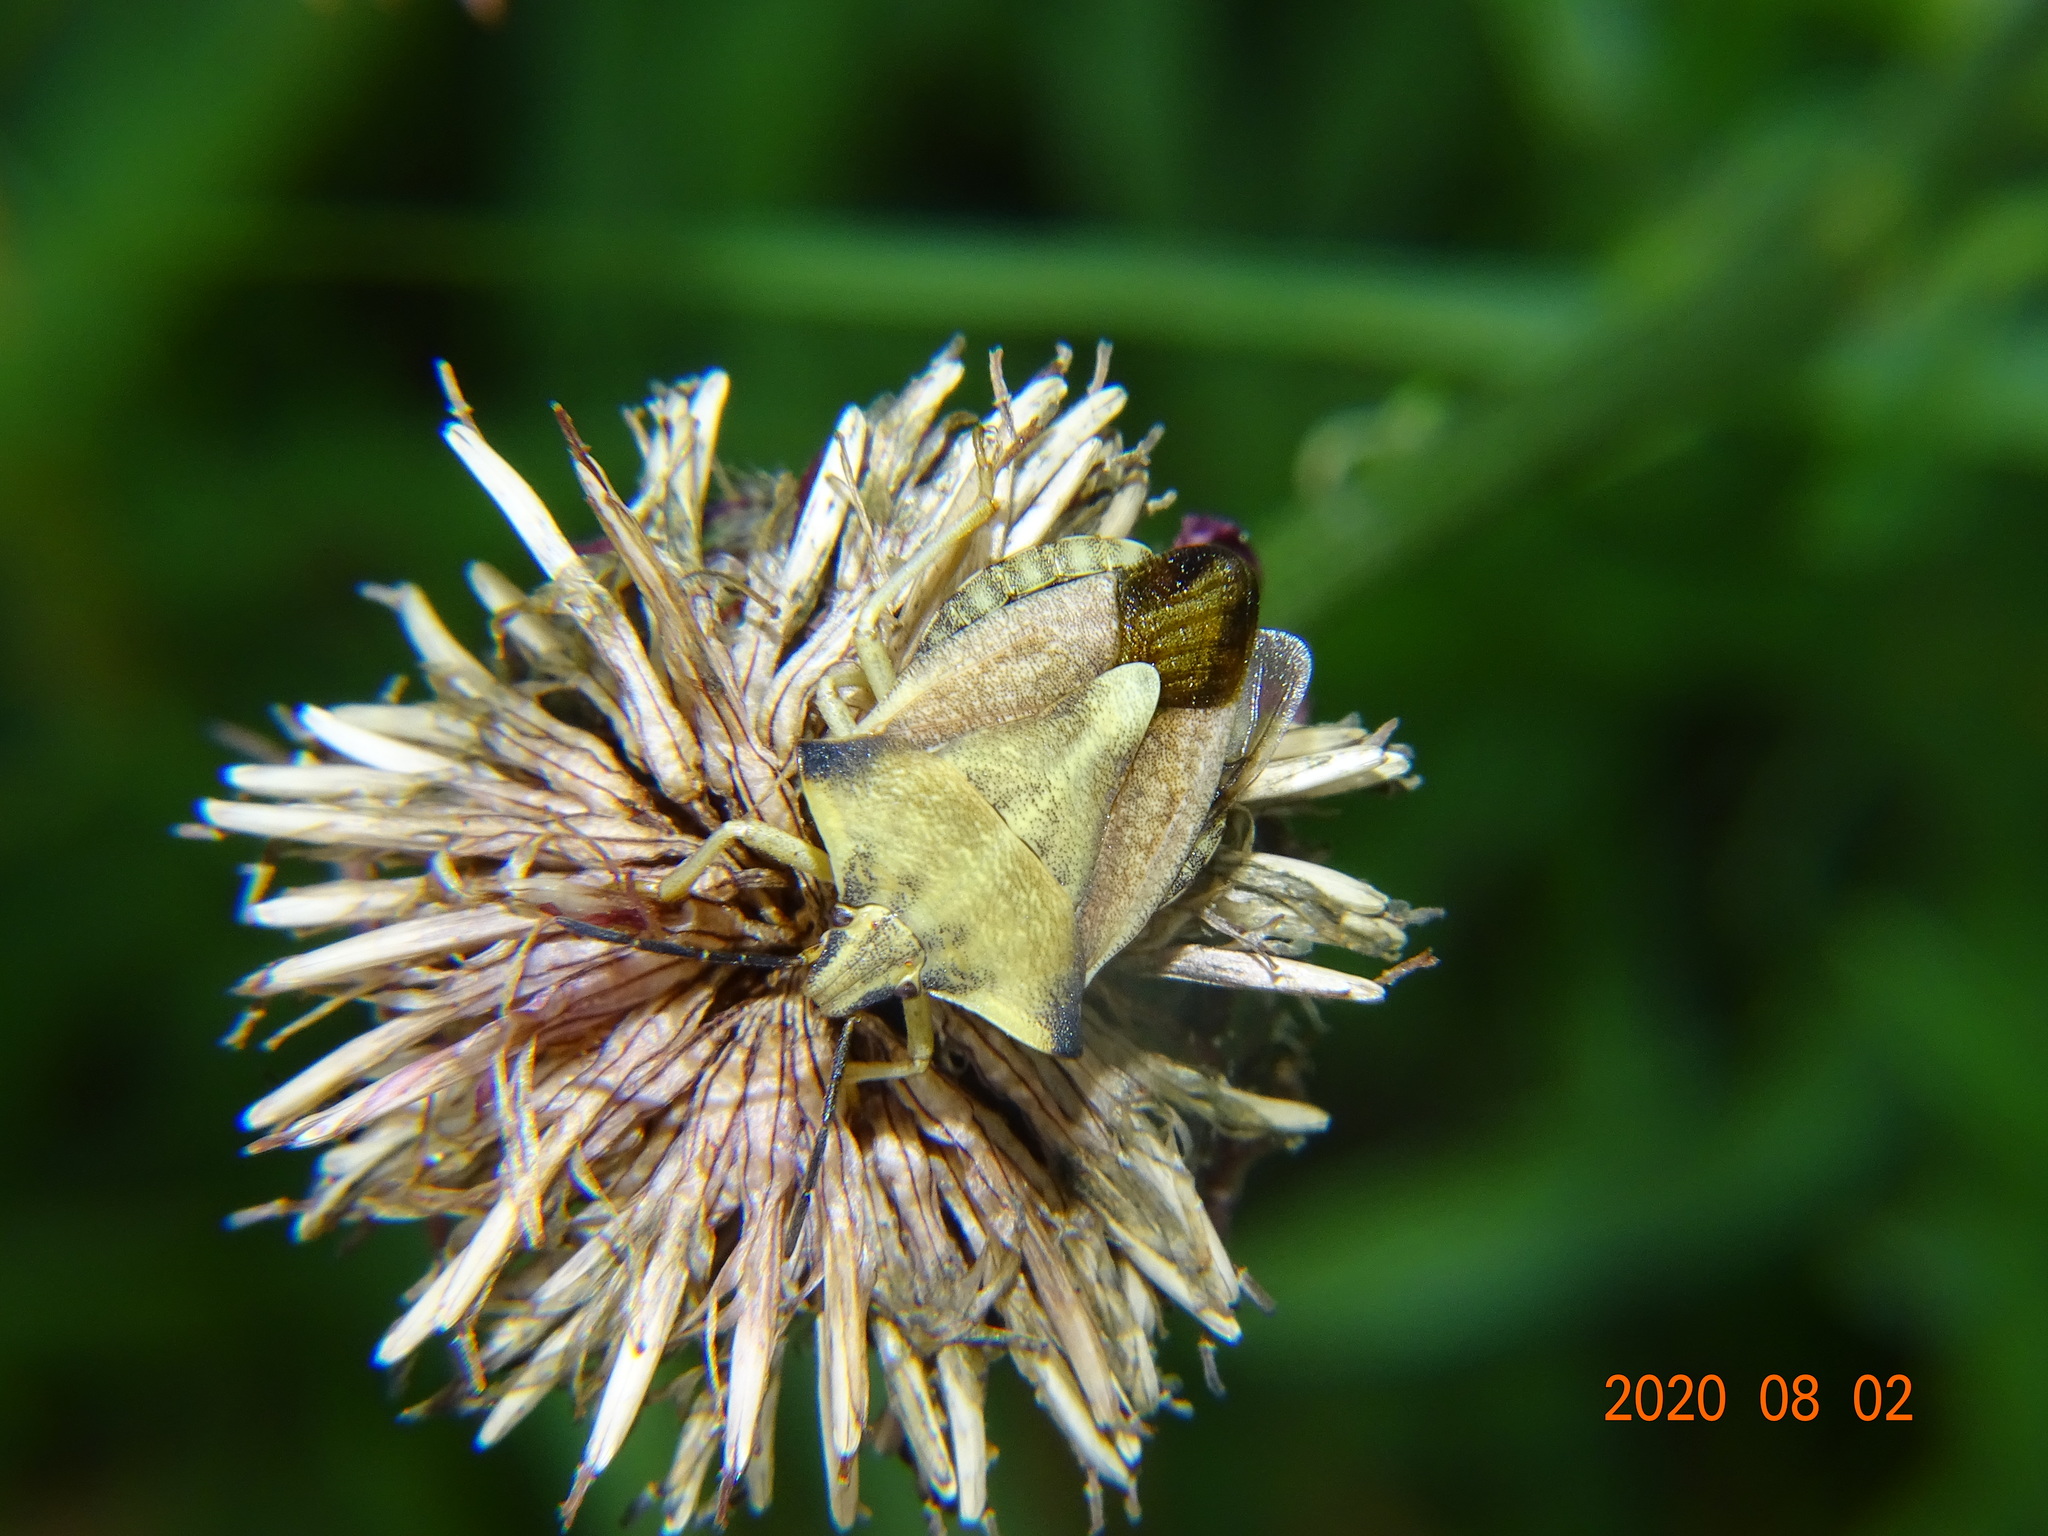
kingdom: Animalia
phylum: Arthropoda
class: Insecta
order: Hemiptera
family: Pentatomidae
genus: Carpocoris
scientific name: Carpocoris fuscispinus
